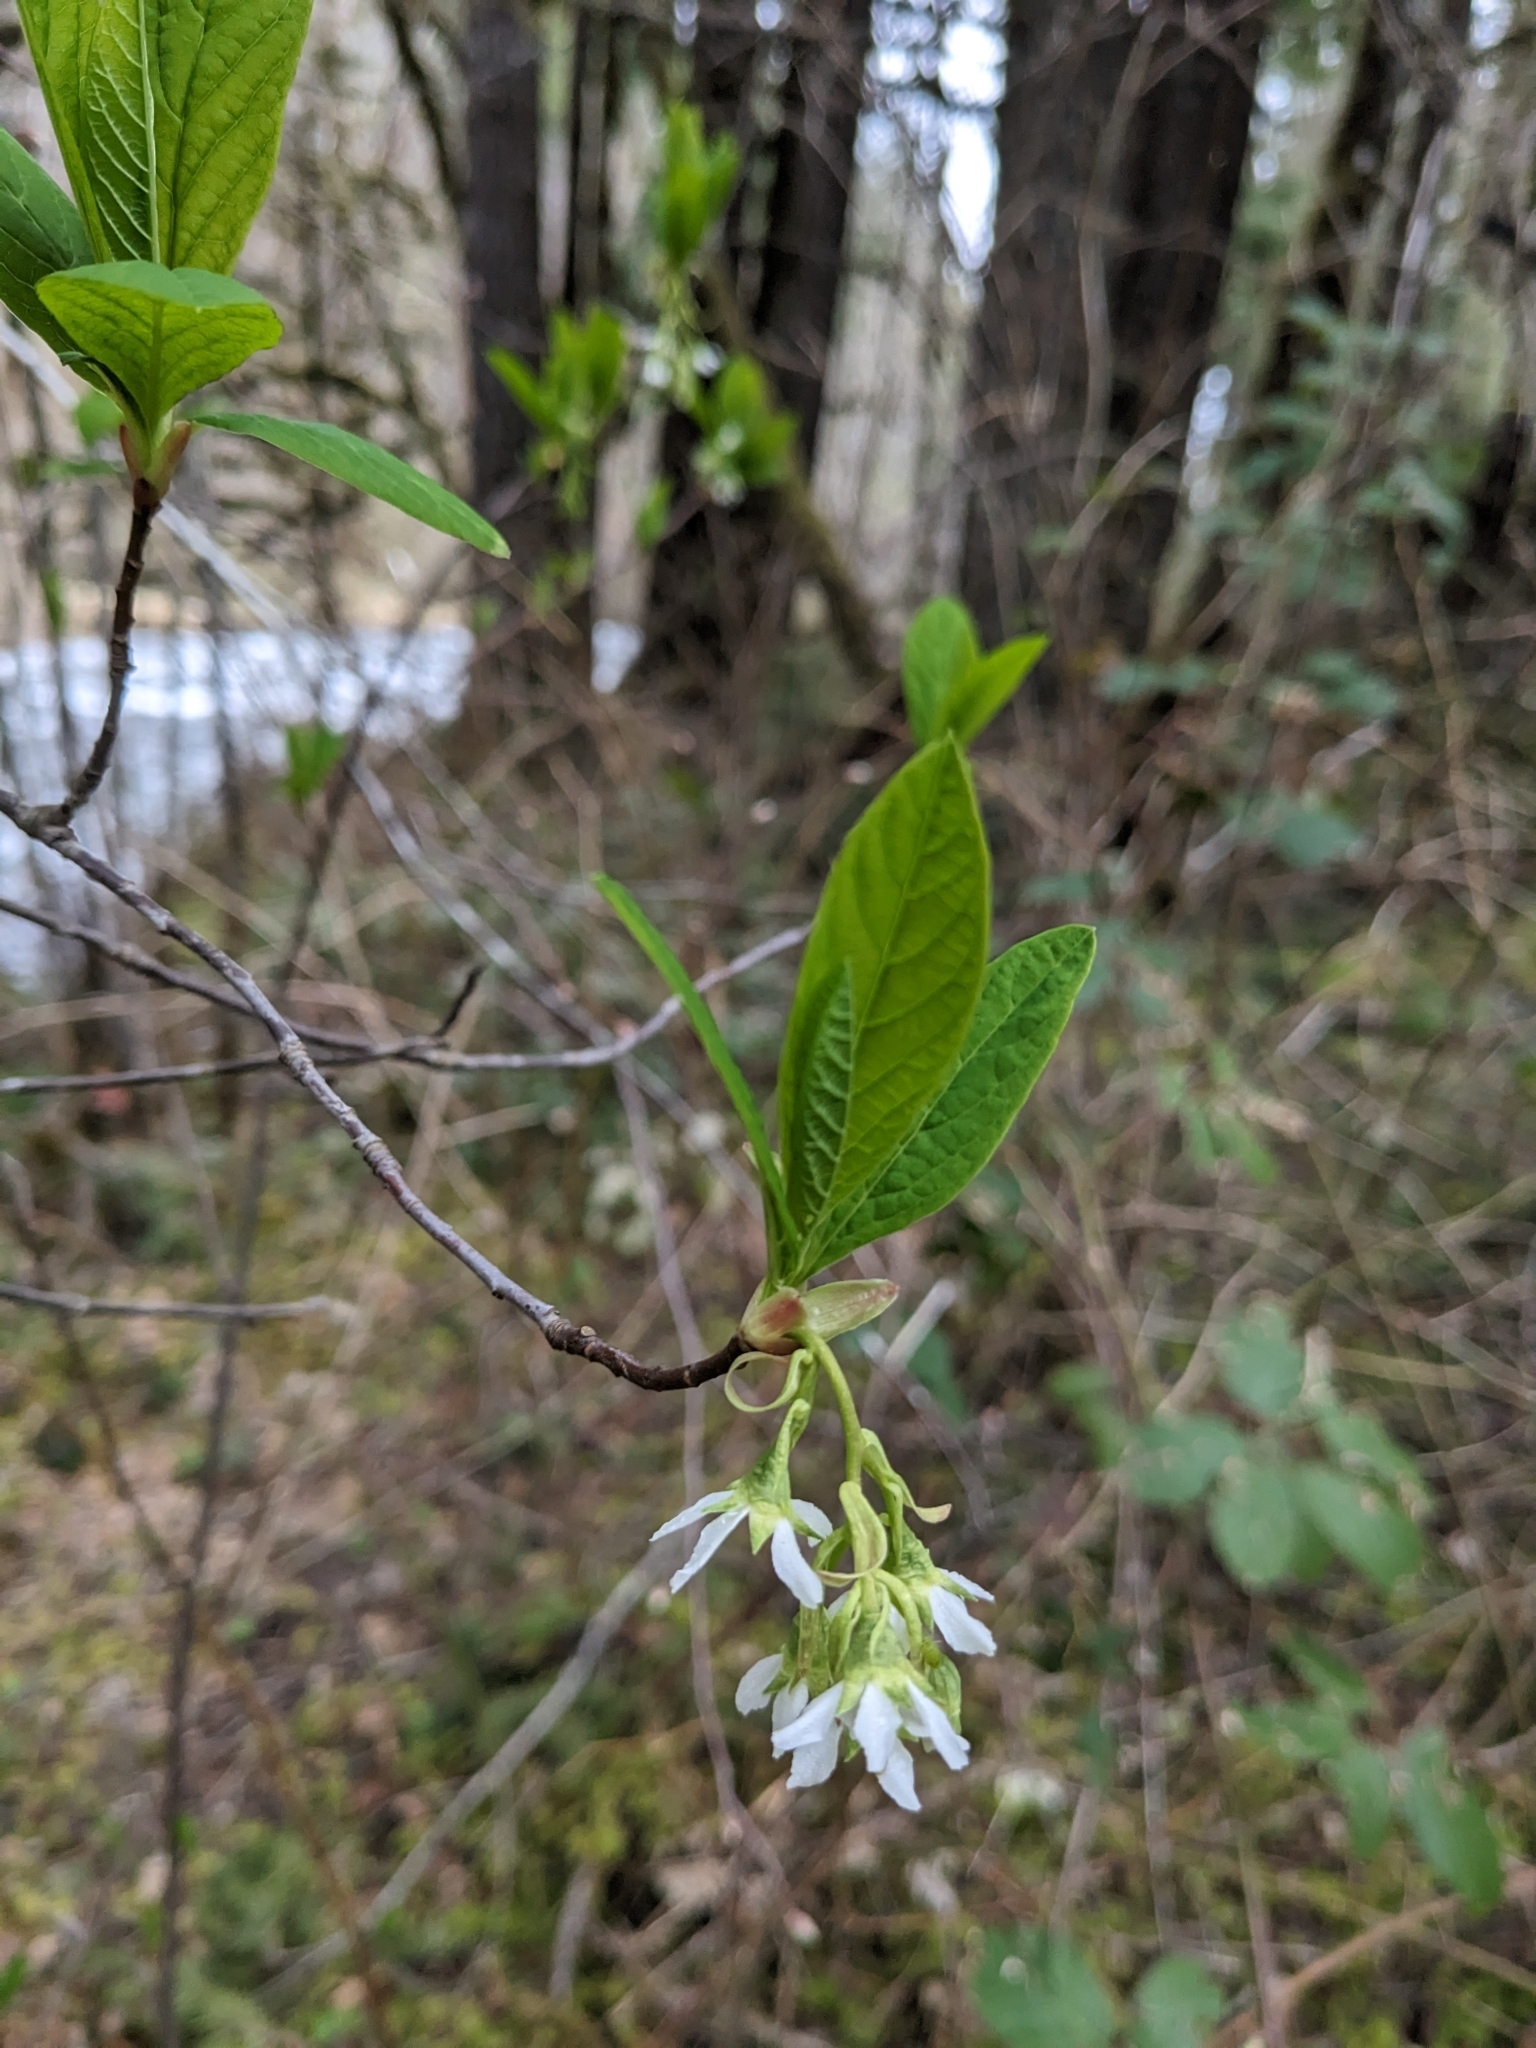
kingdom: Plantae
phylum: Tracheophyta
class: Magnoliopsida
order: Rosales
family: Rosaceae
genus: Oemleria
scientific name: Oemleria cerasiformis
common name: Osoberry
